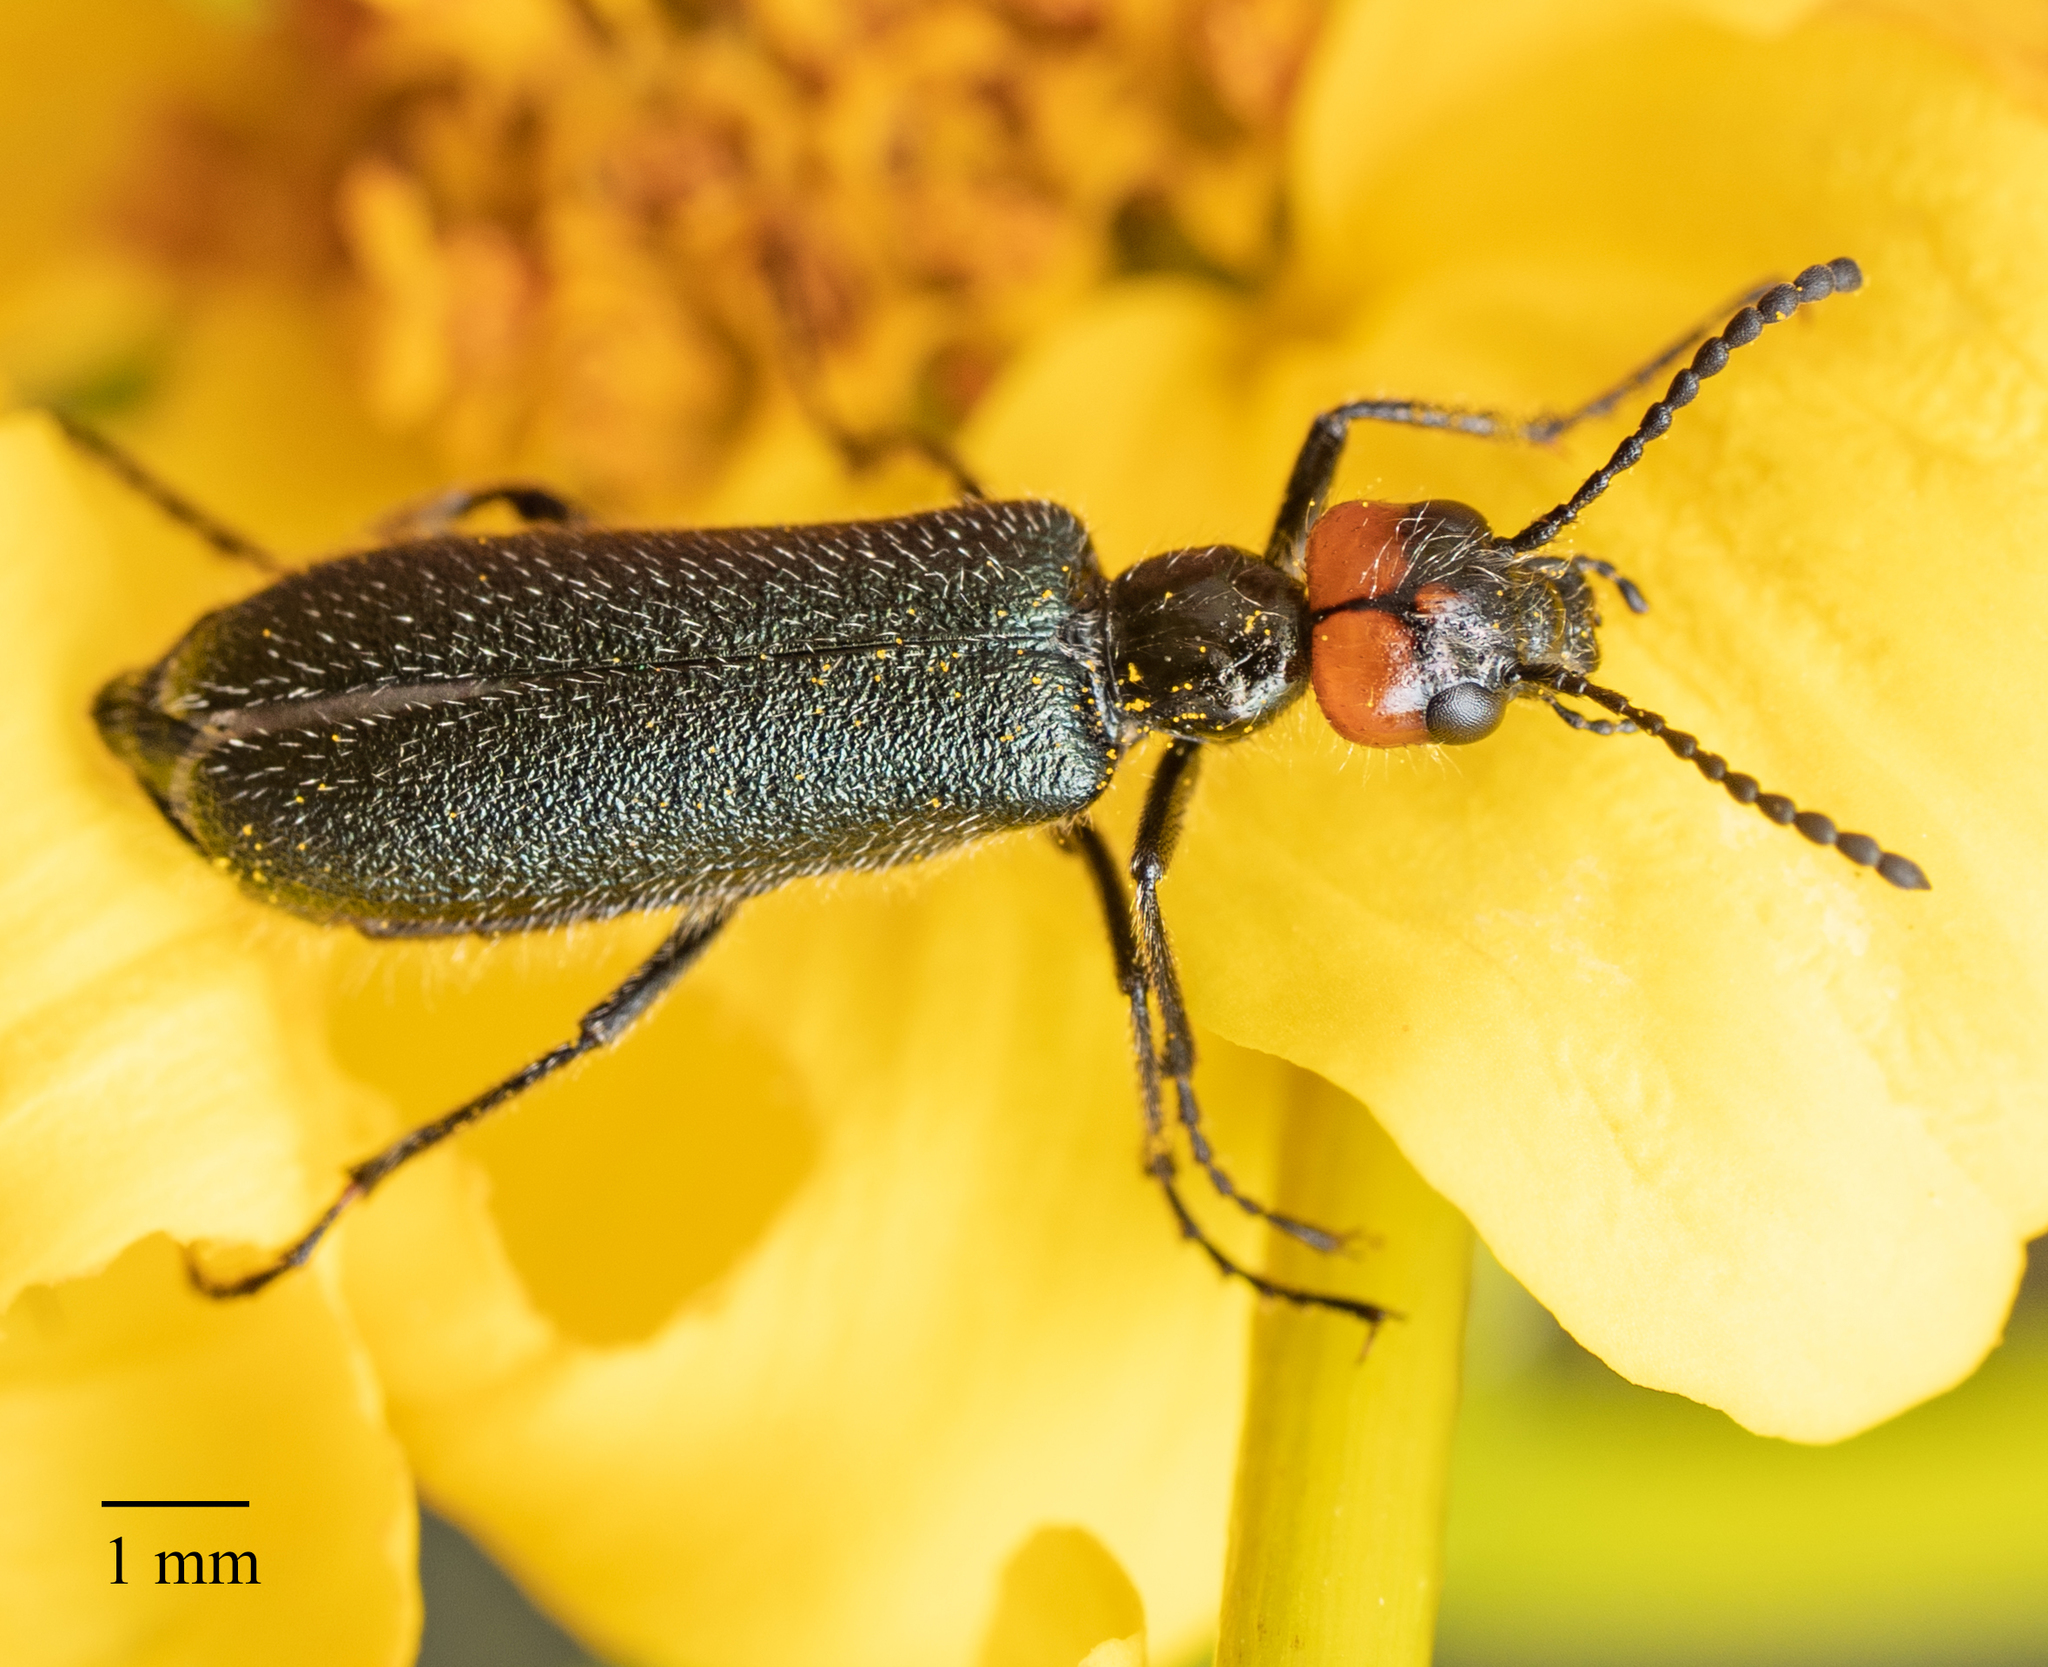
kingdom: Animalia
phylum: Arthropoda
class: Insecta
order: Coleoptera
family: Meloidae
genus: Lytta
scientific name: Lytta auriculata
